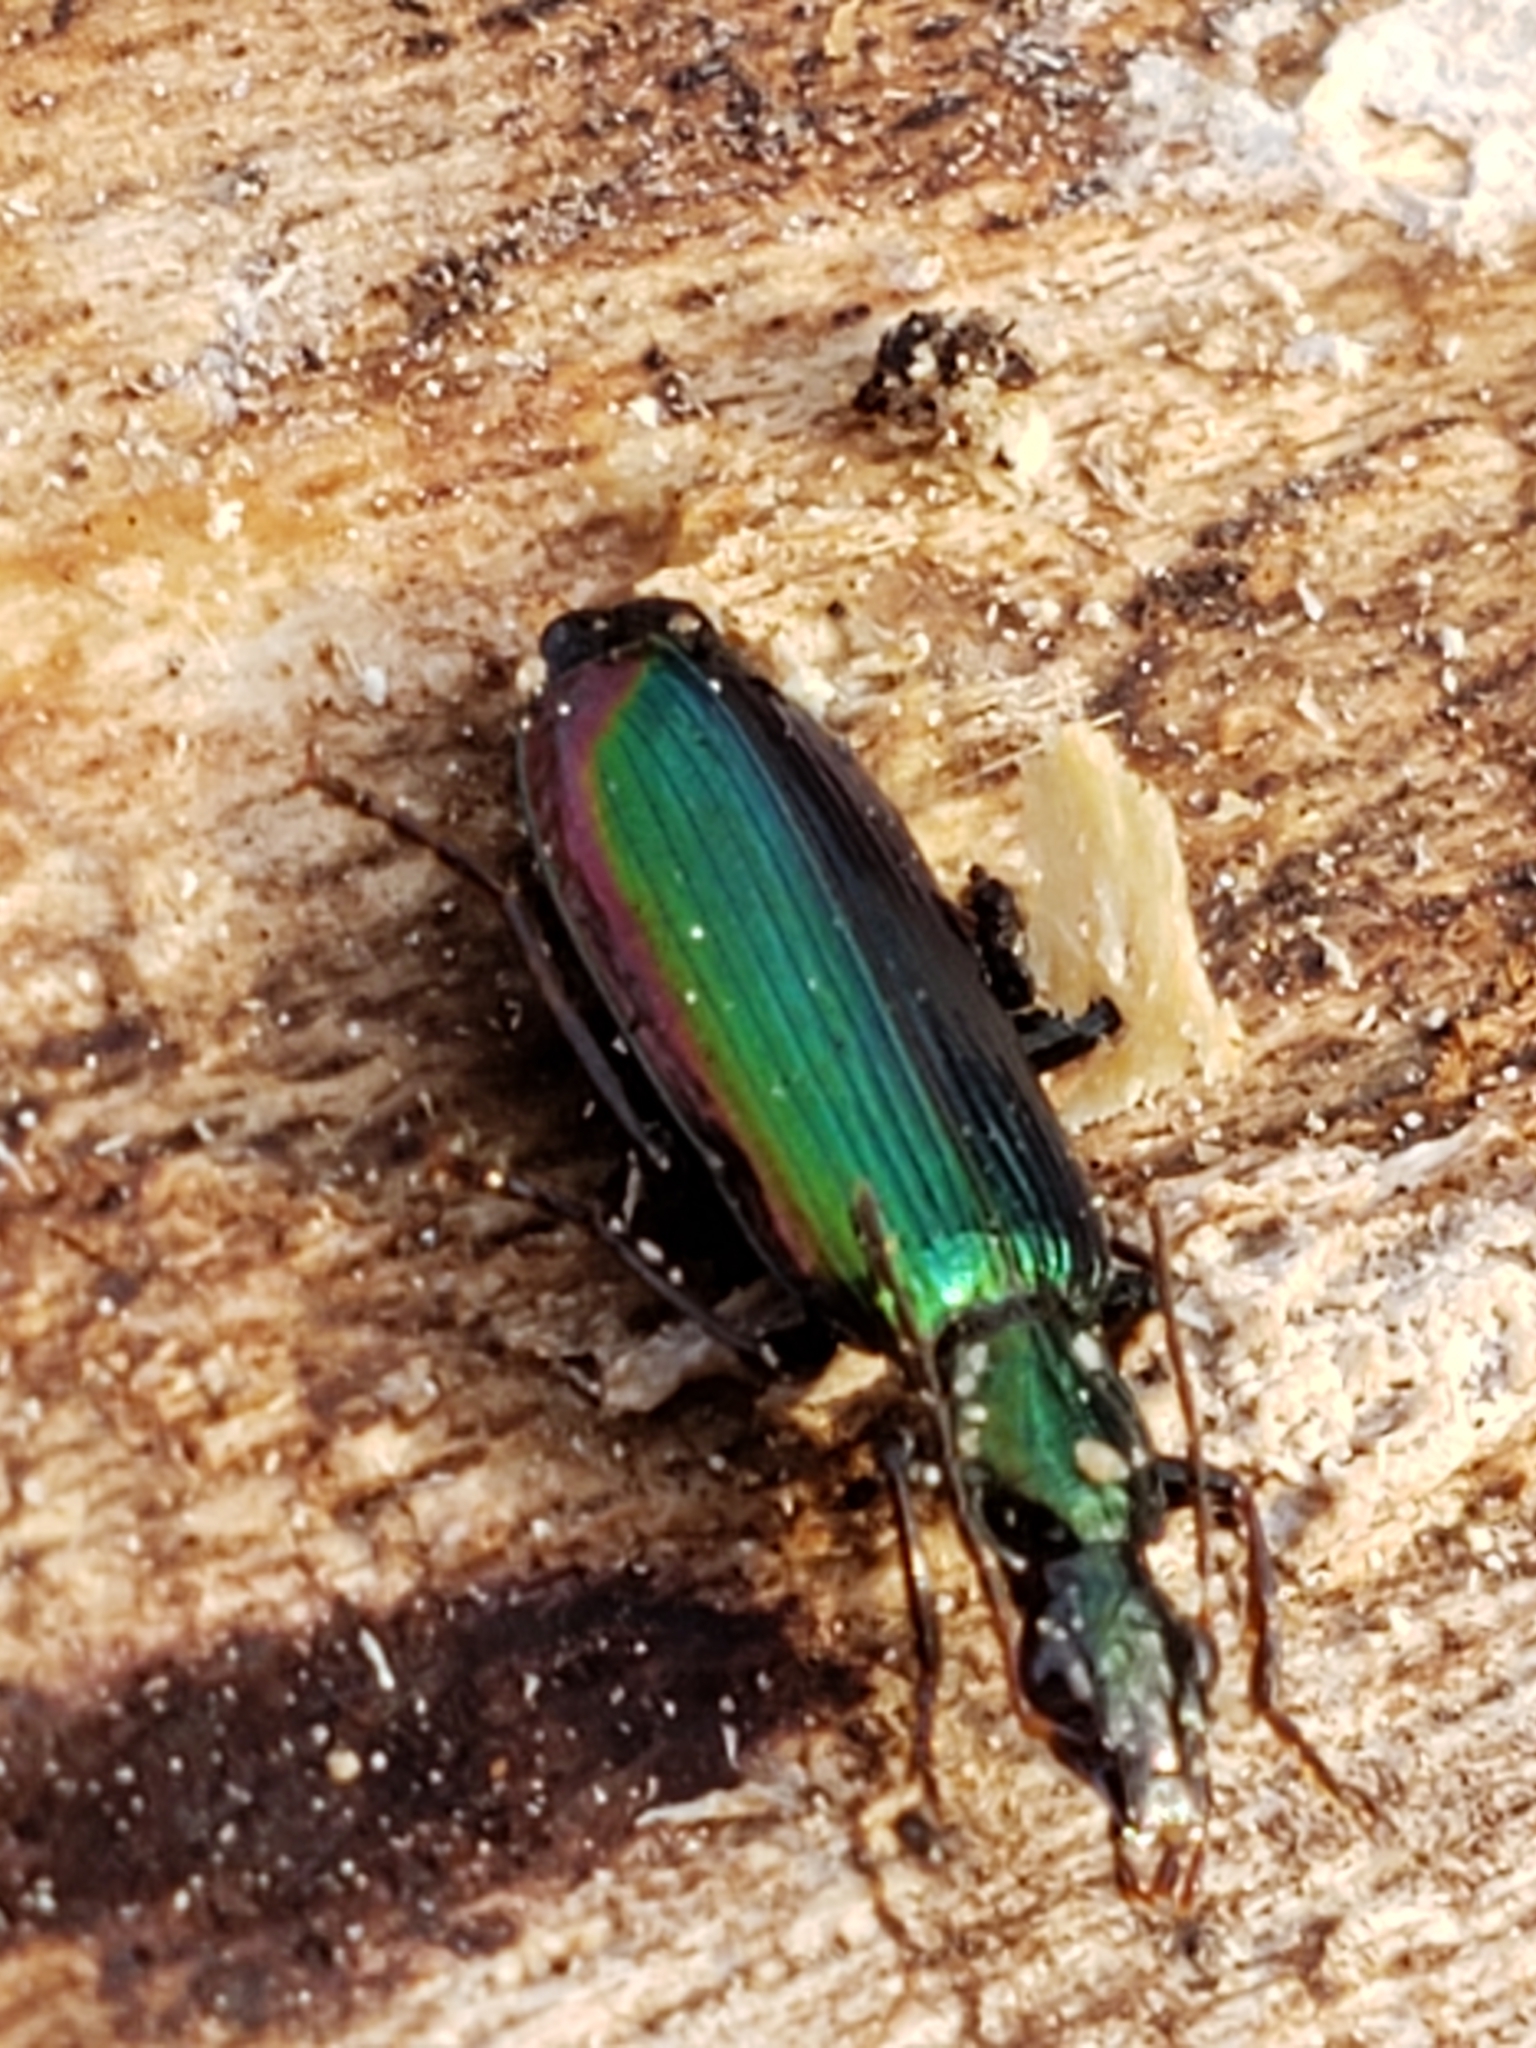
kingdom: Animalia
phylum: Arthropoda
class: Insecta
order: Coleoptera
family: Carabidae
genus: Calleida
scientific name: Calleida viridipennis
